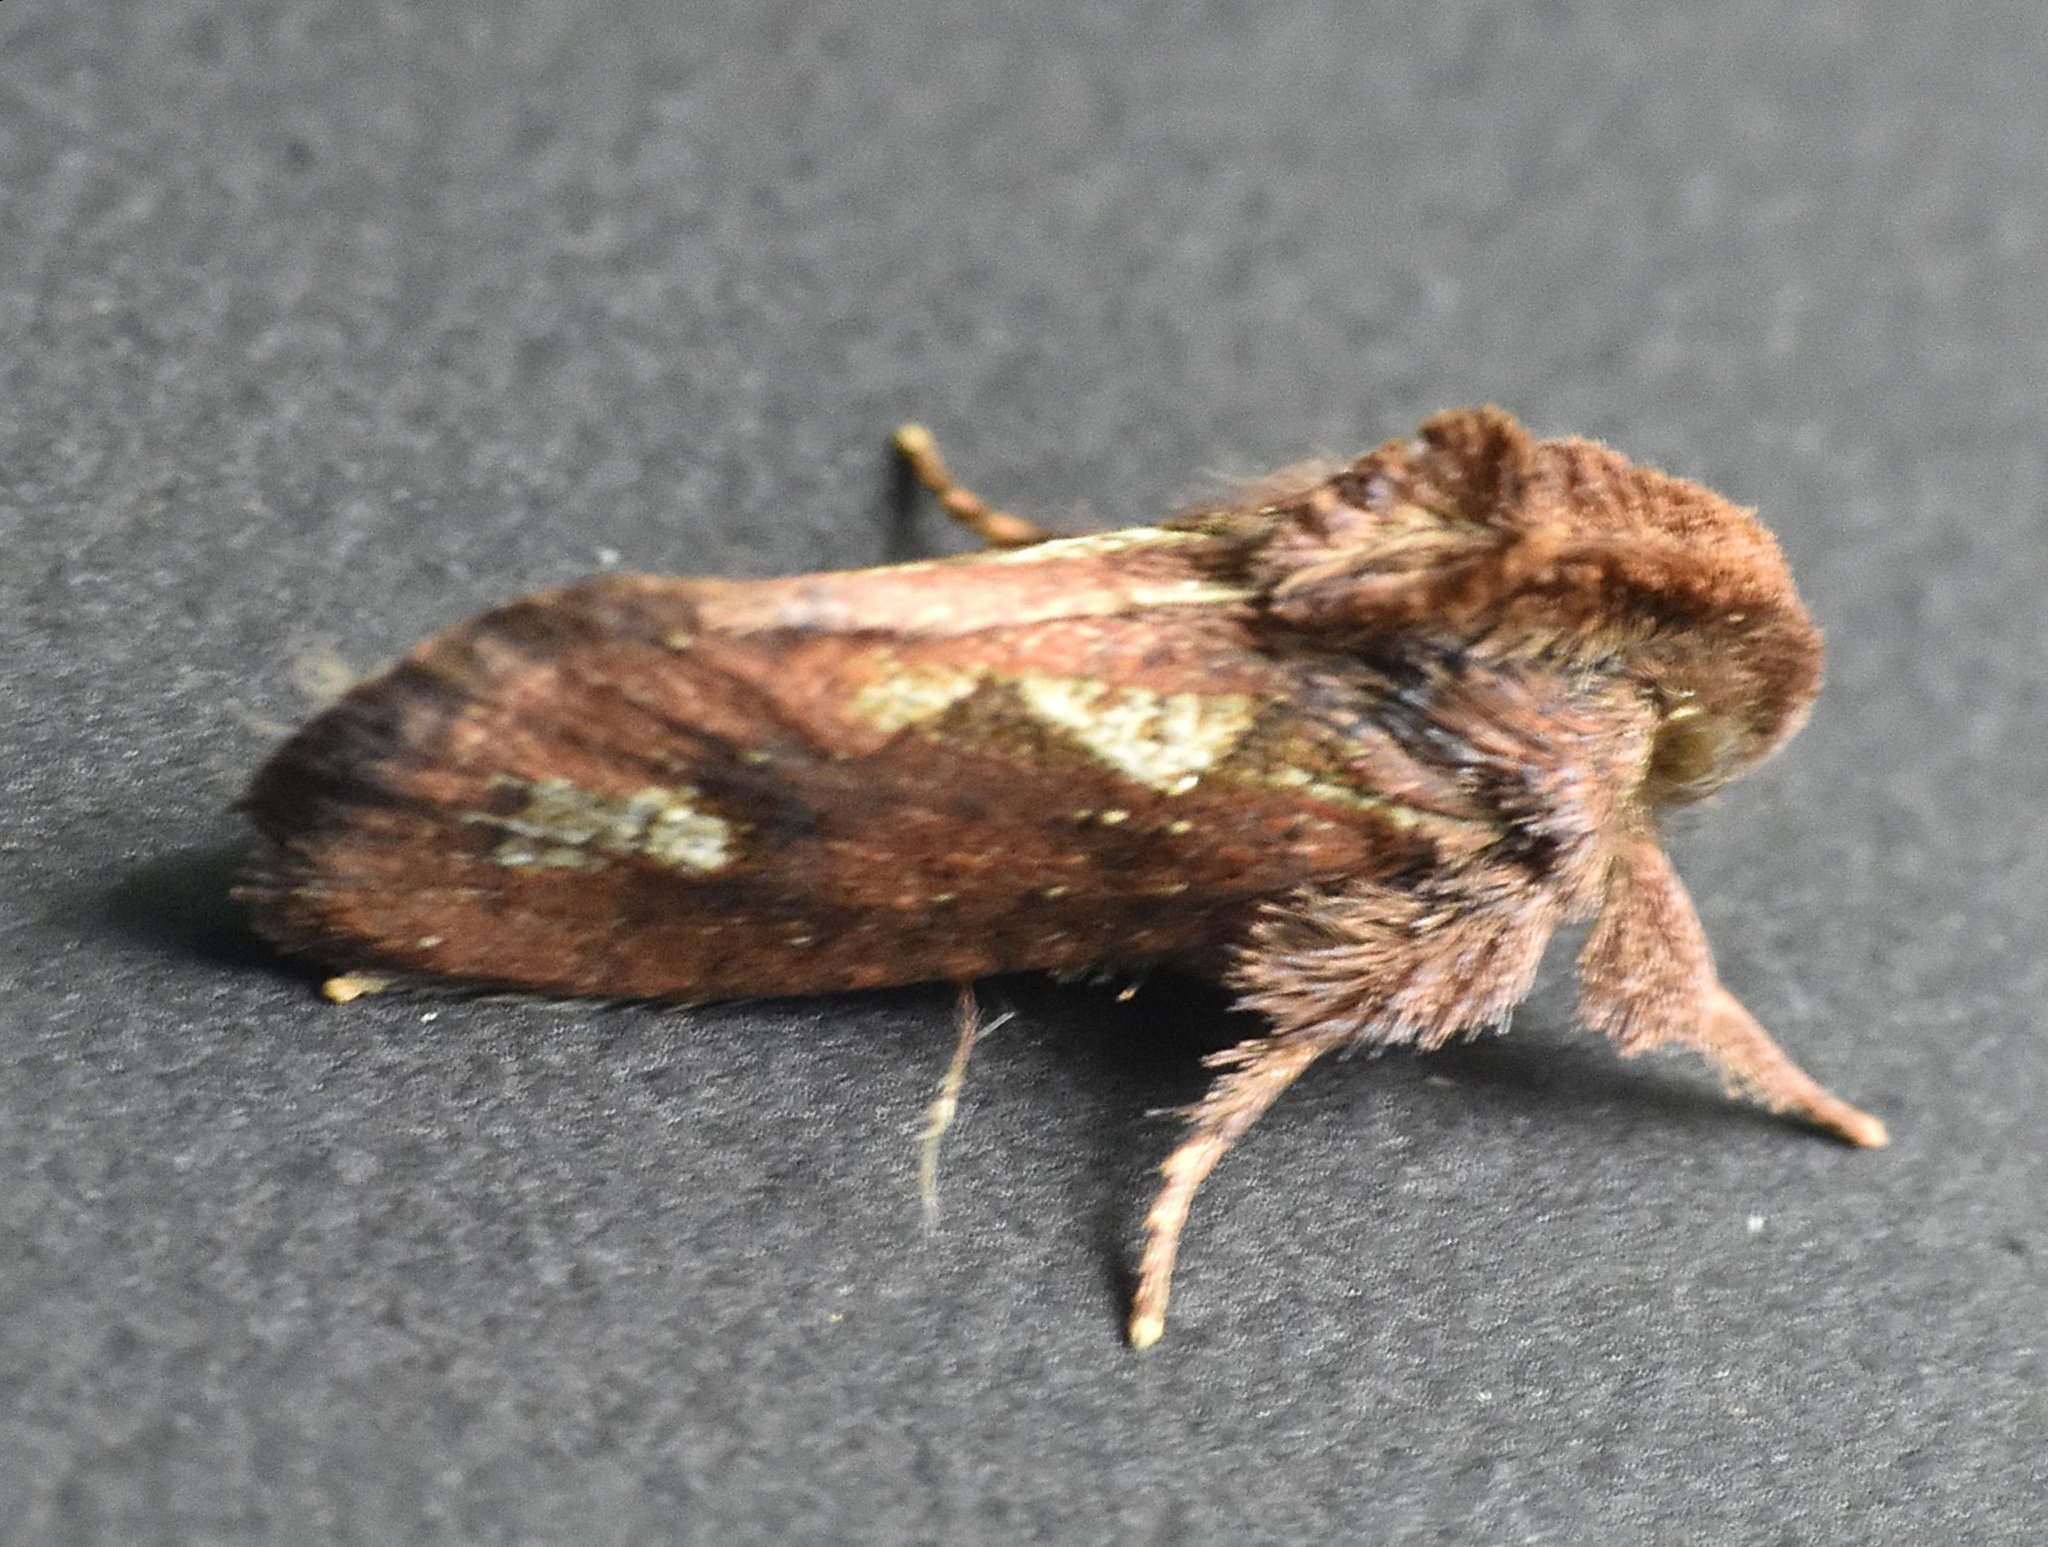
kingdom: Animalia
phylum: Arthropoda
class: Insecta
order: Lepidoptera
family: Tineidae
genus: Acrolophus
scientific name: Acrolophus walsinghami
